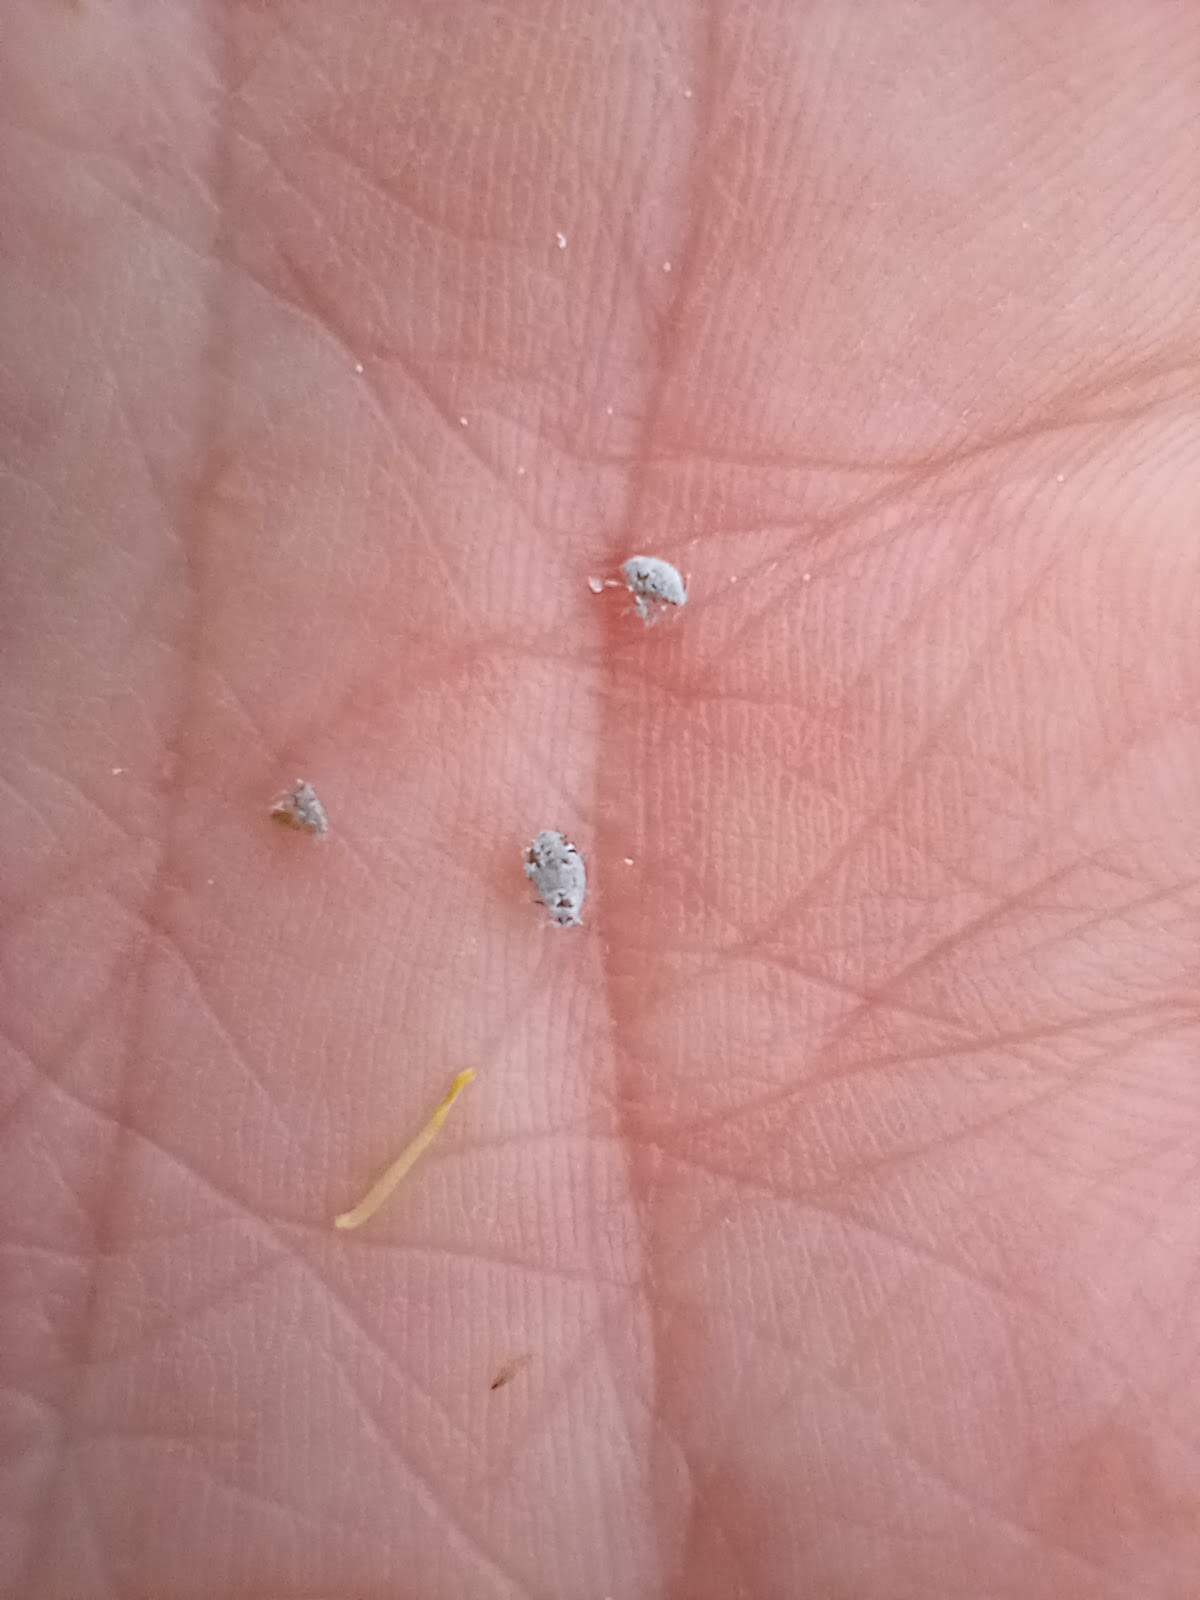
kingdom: Animalia
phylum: Arthropoda
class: Insecta
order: Hemiptera
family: Aphididae
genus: Brevicoryne
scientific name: Brevicoryne brassicae
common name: Cabbage aphid
